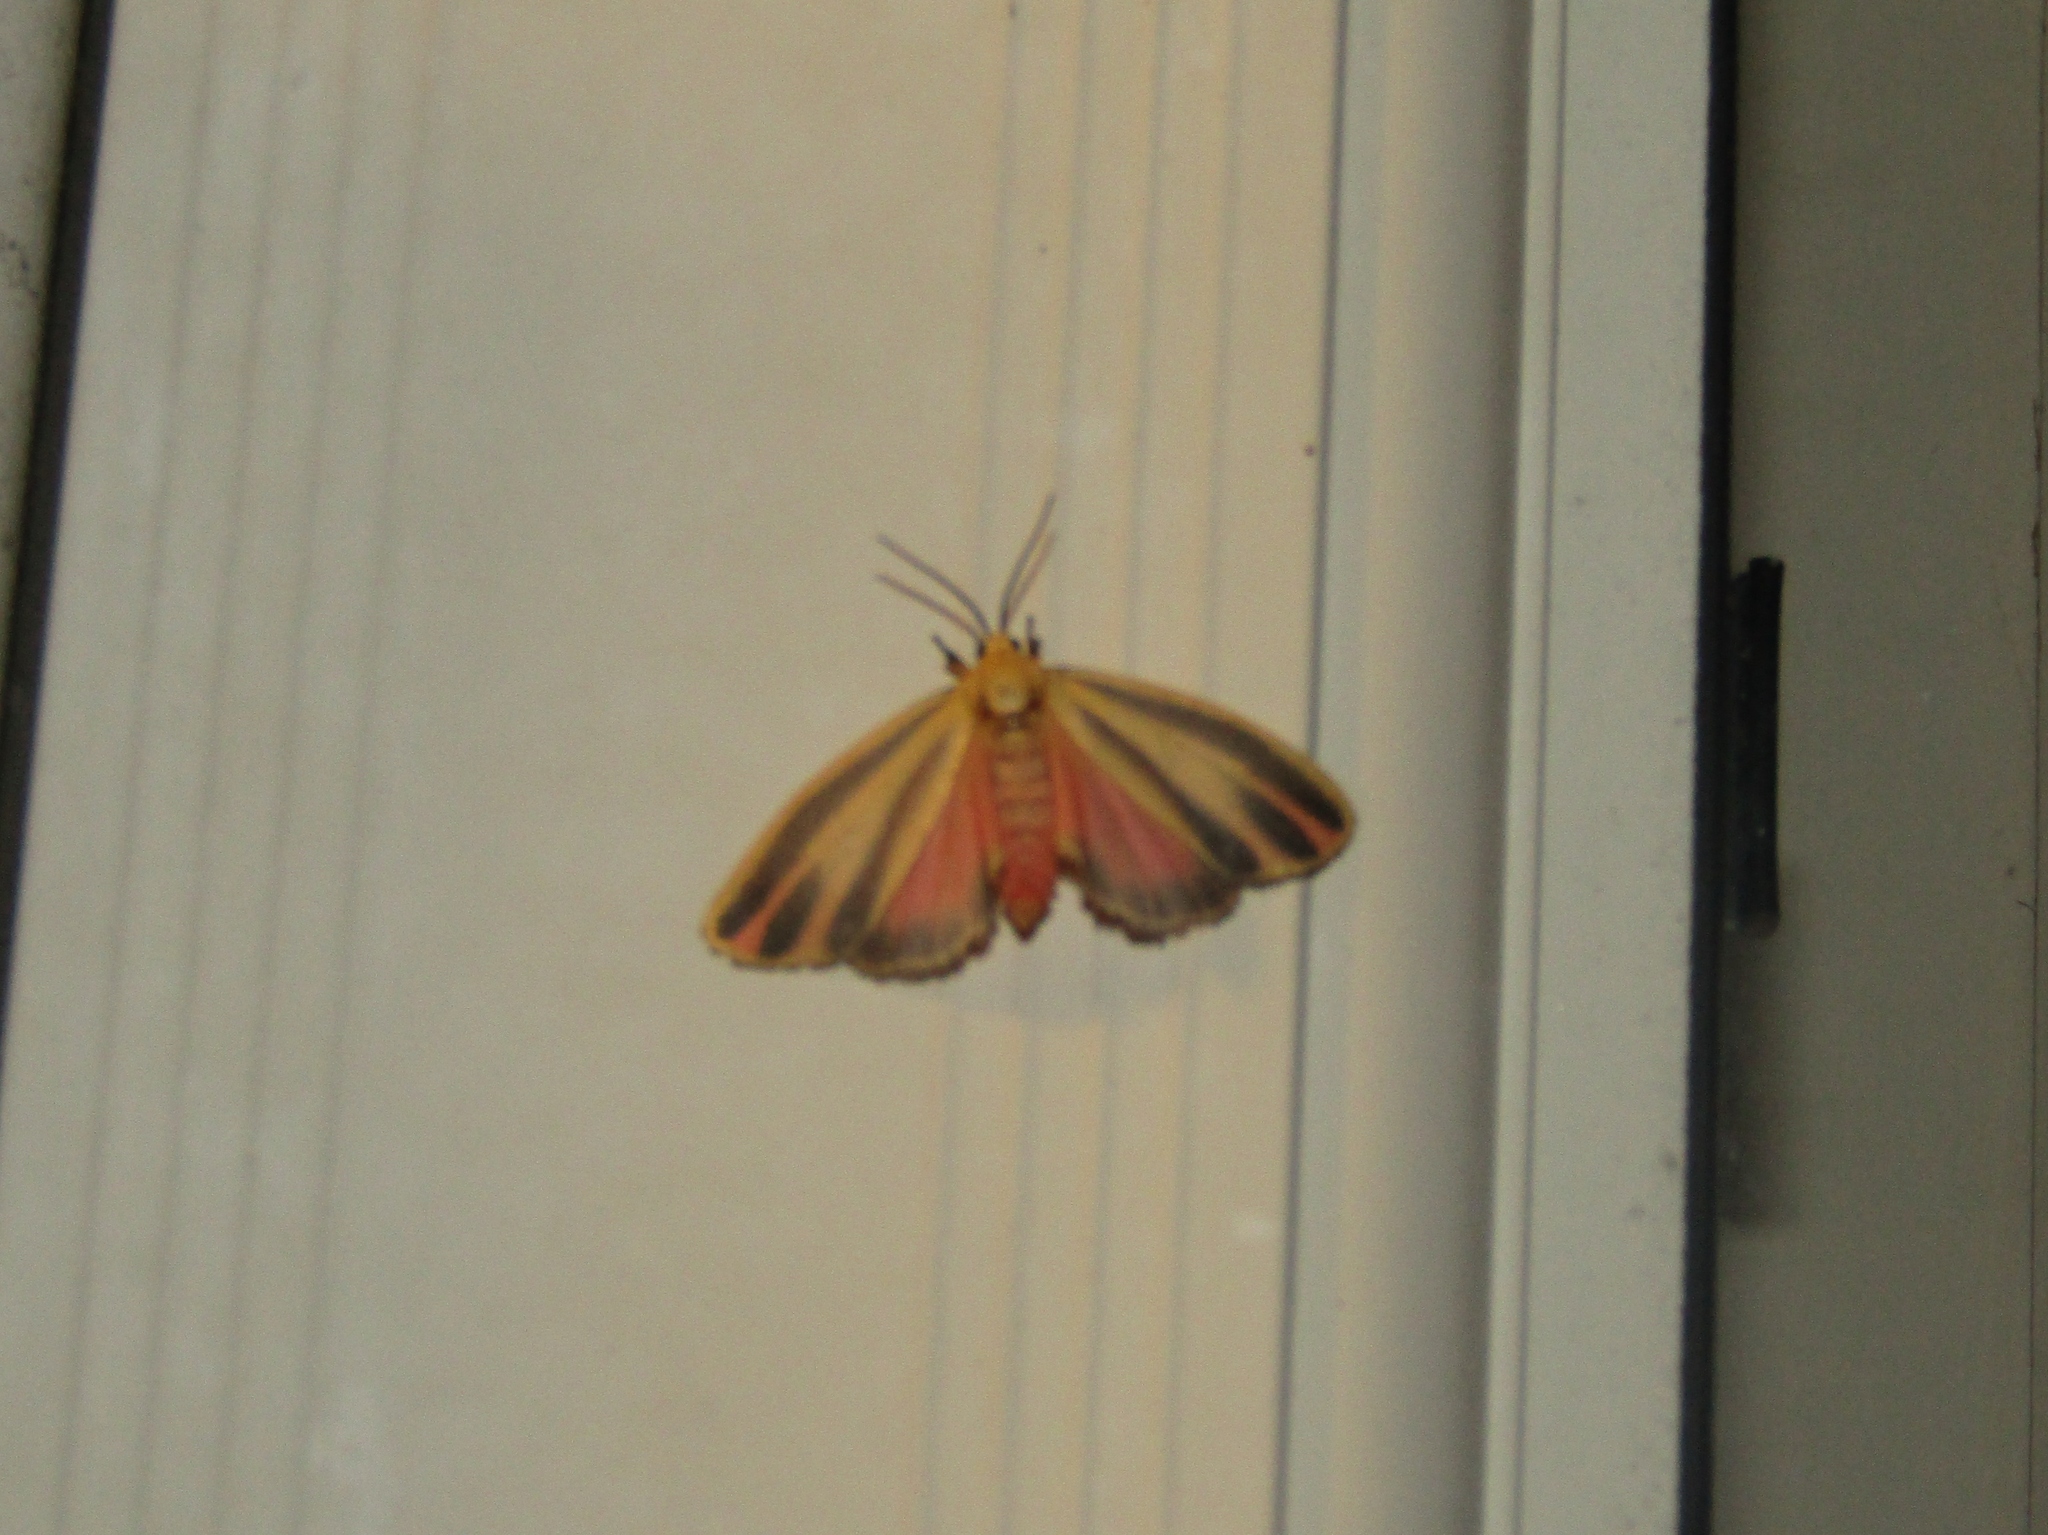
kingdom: Animalia
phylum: Arthropoda
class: Insecta
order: Lepidoptera
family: Erebidae
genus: Hypoprepia
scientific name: Hypoprepia fucosa
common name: Painted lichen moth
